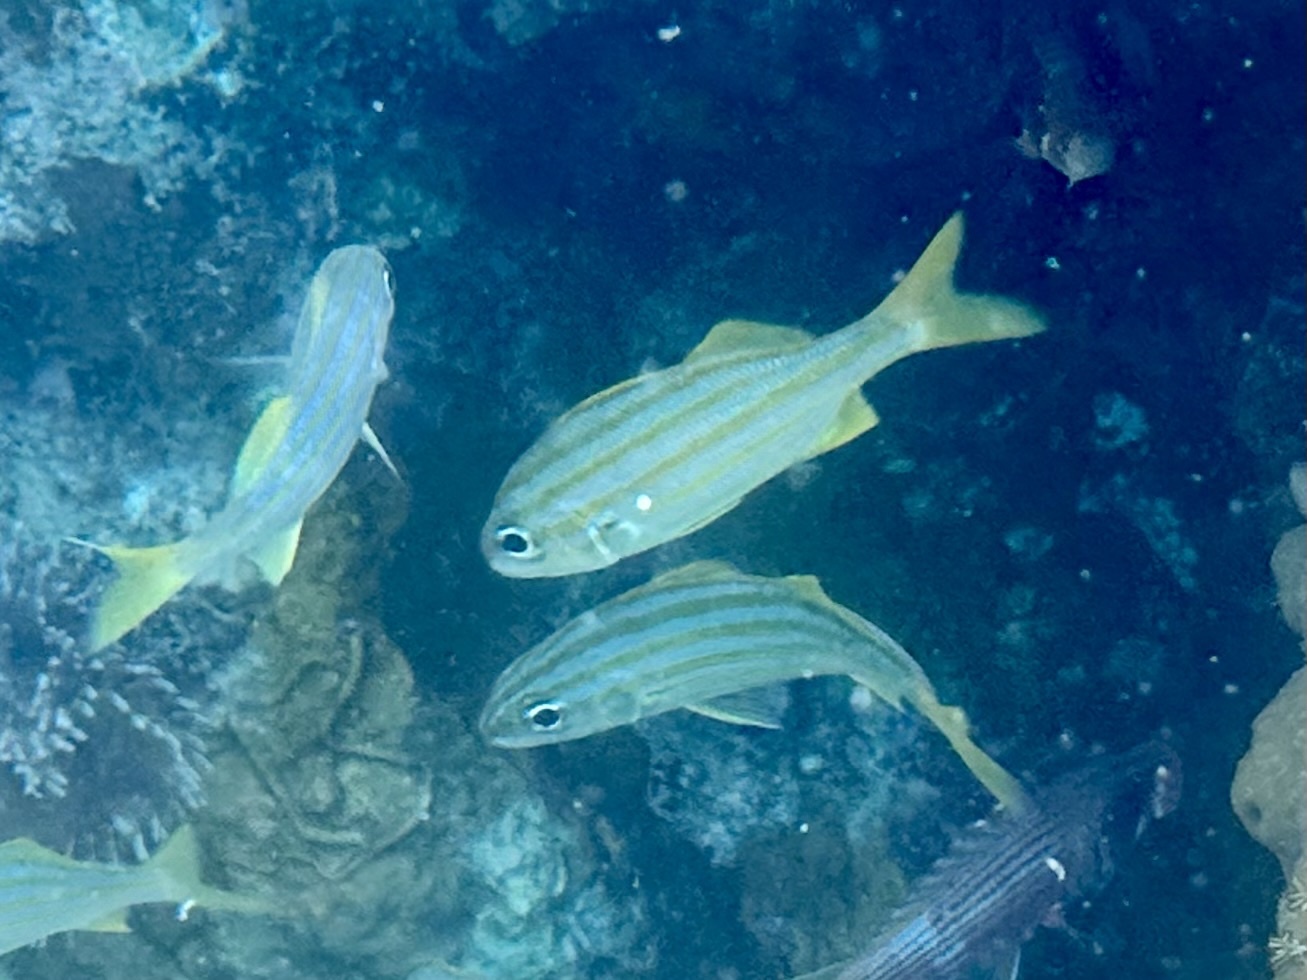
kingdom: Animalia
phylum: Chordata
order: Perciformes
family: Haemulidae
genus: Haemulon
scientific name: Haemulon chrysargyreum
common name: Smallmouth grunt
